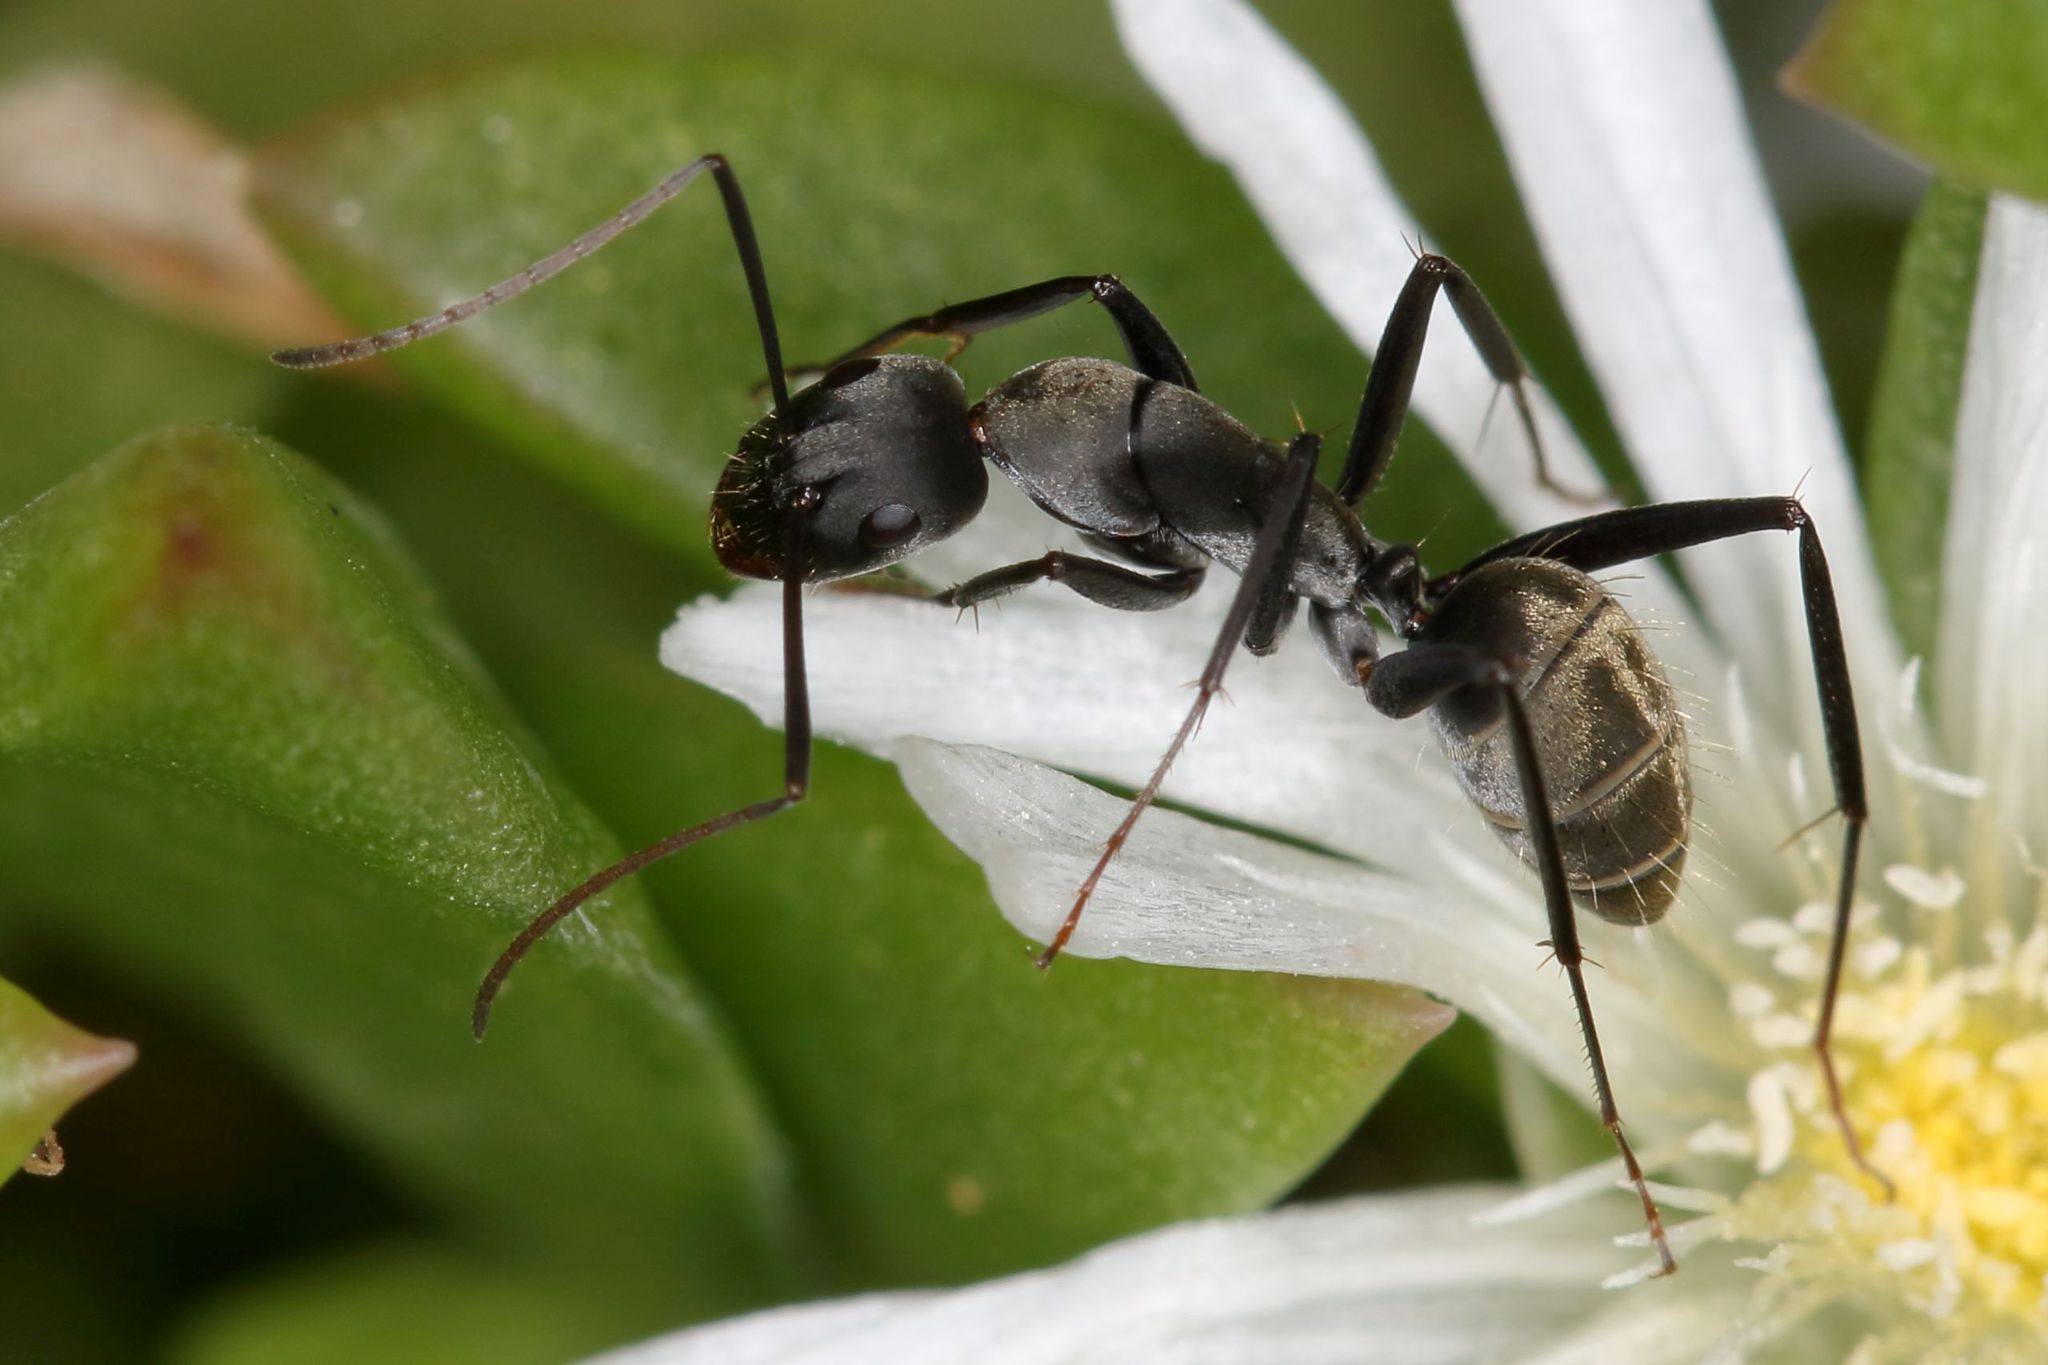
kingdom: Animalia
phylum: Arthropoda
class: Insecta
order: Hymenoptera
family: Formicidae
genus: Camponotus
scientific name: Camponotus cinctellus
